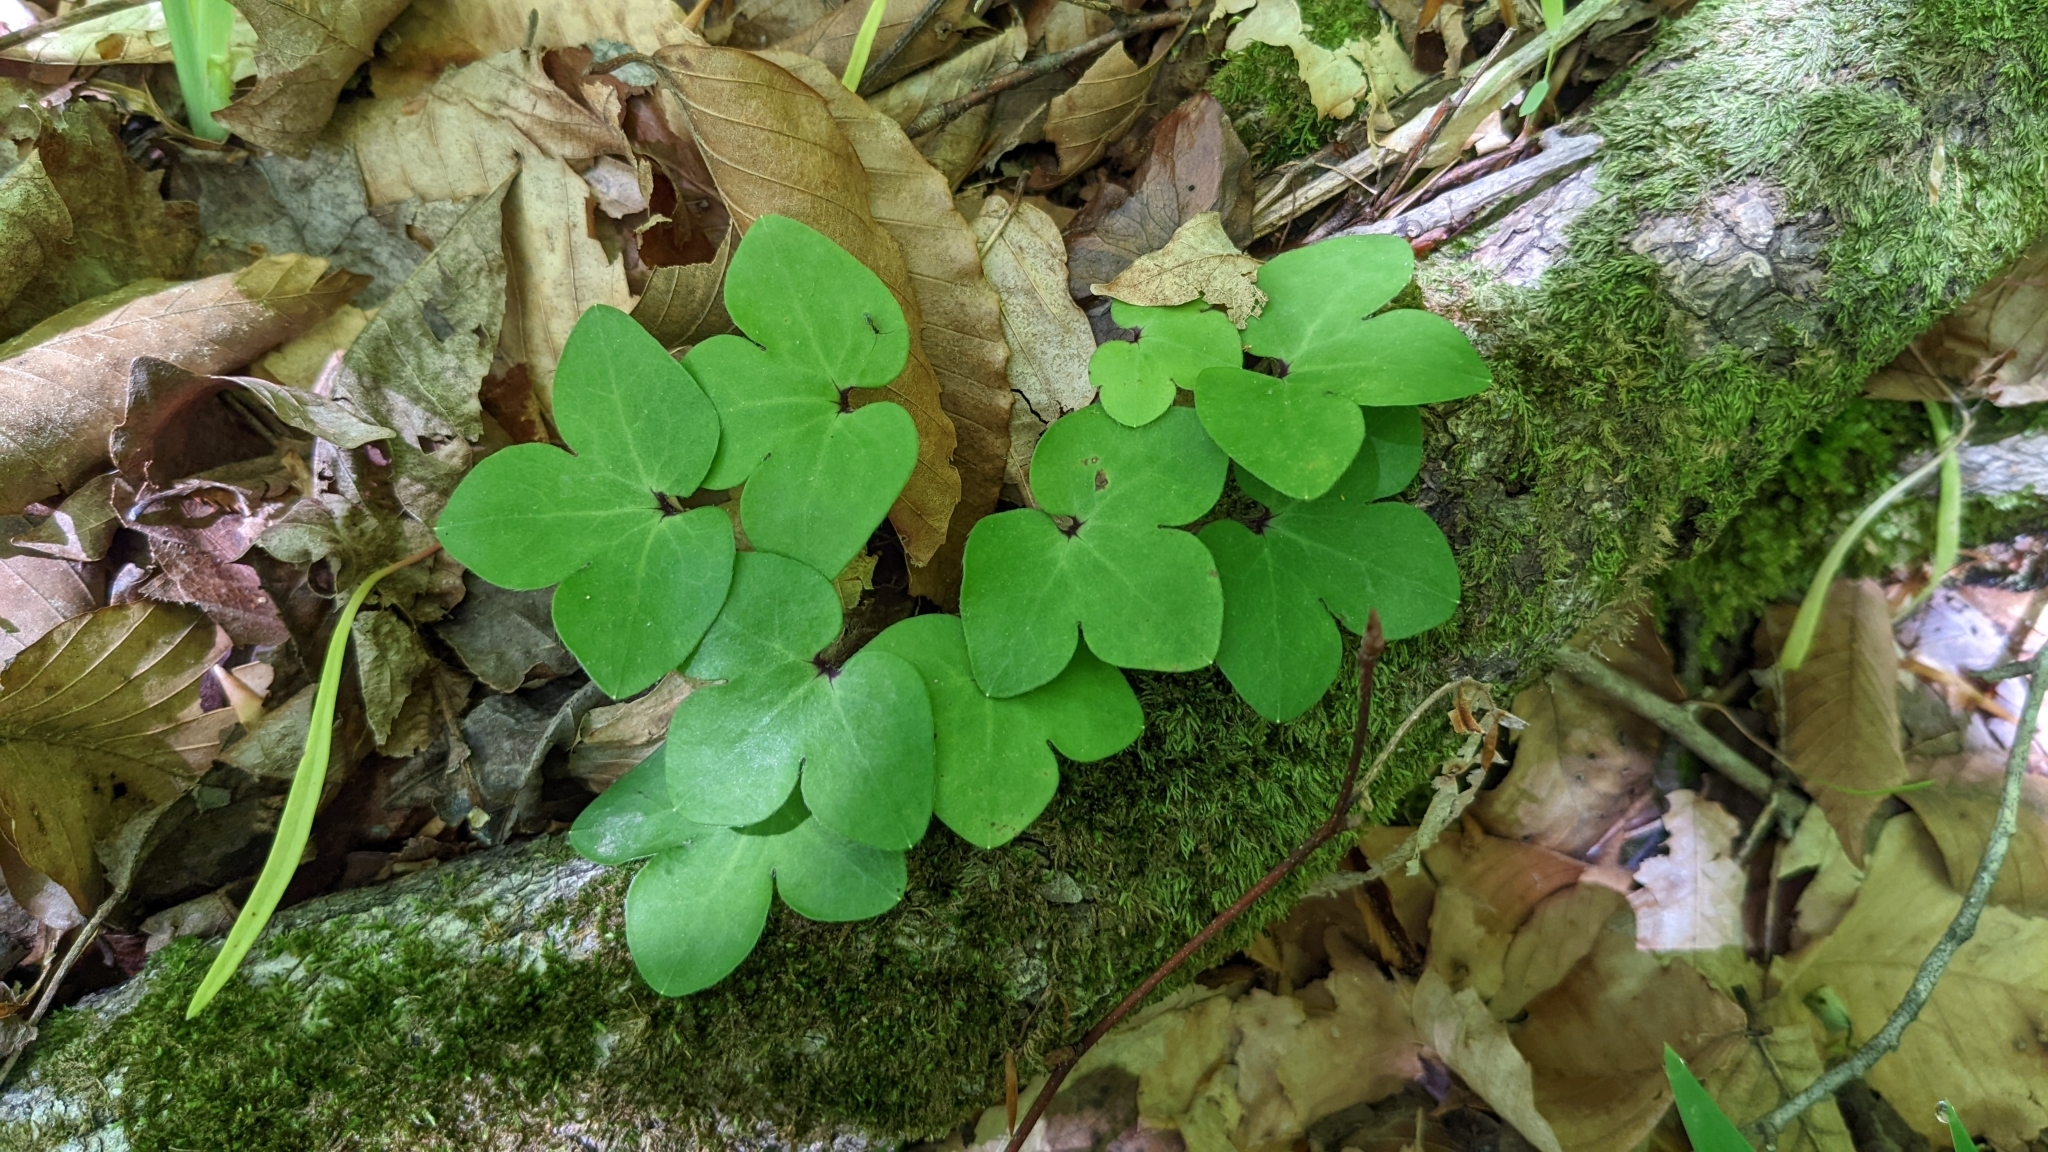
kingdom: Plantae
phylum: Tracheophyta
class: Magnoliopsida
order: Ranunculales
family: Ranunculaceae
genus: Hepatica
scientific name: Hepatica americana
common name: American hepatica
